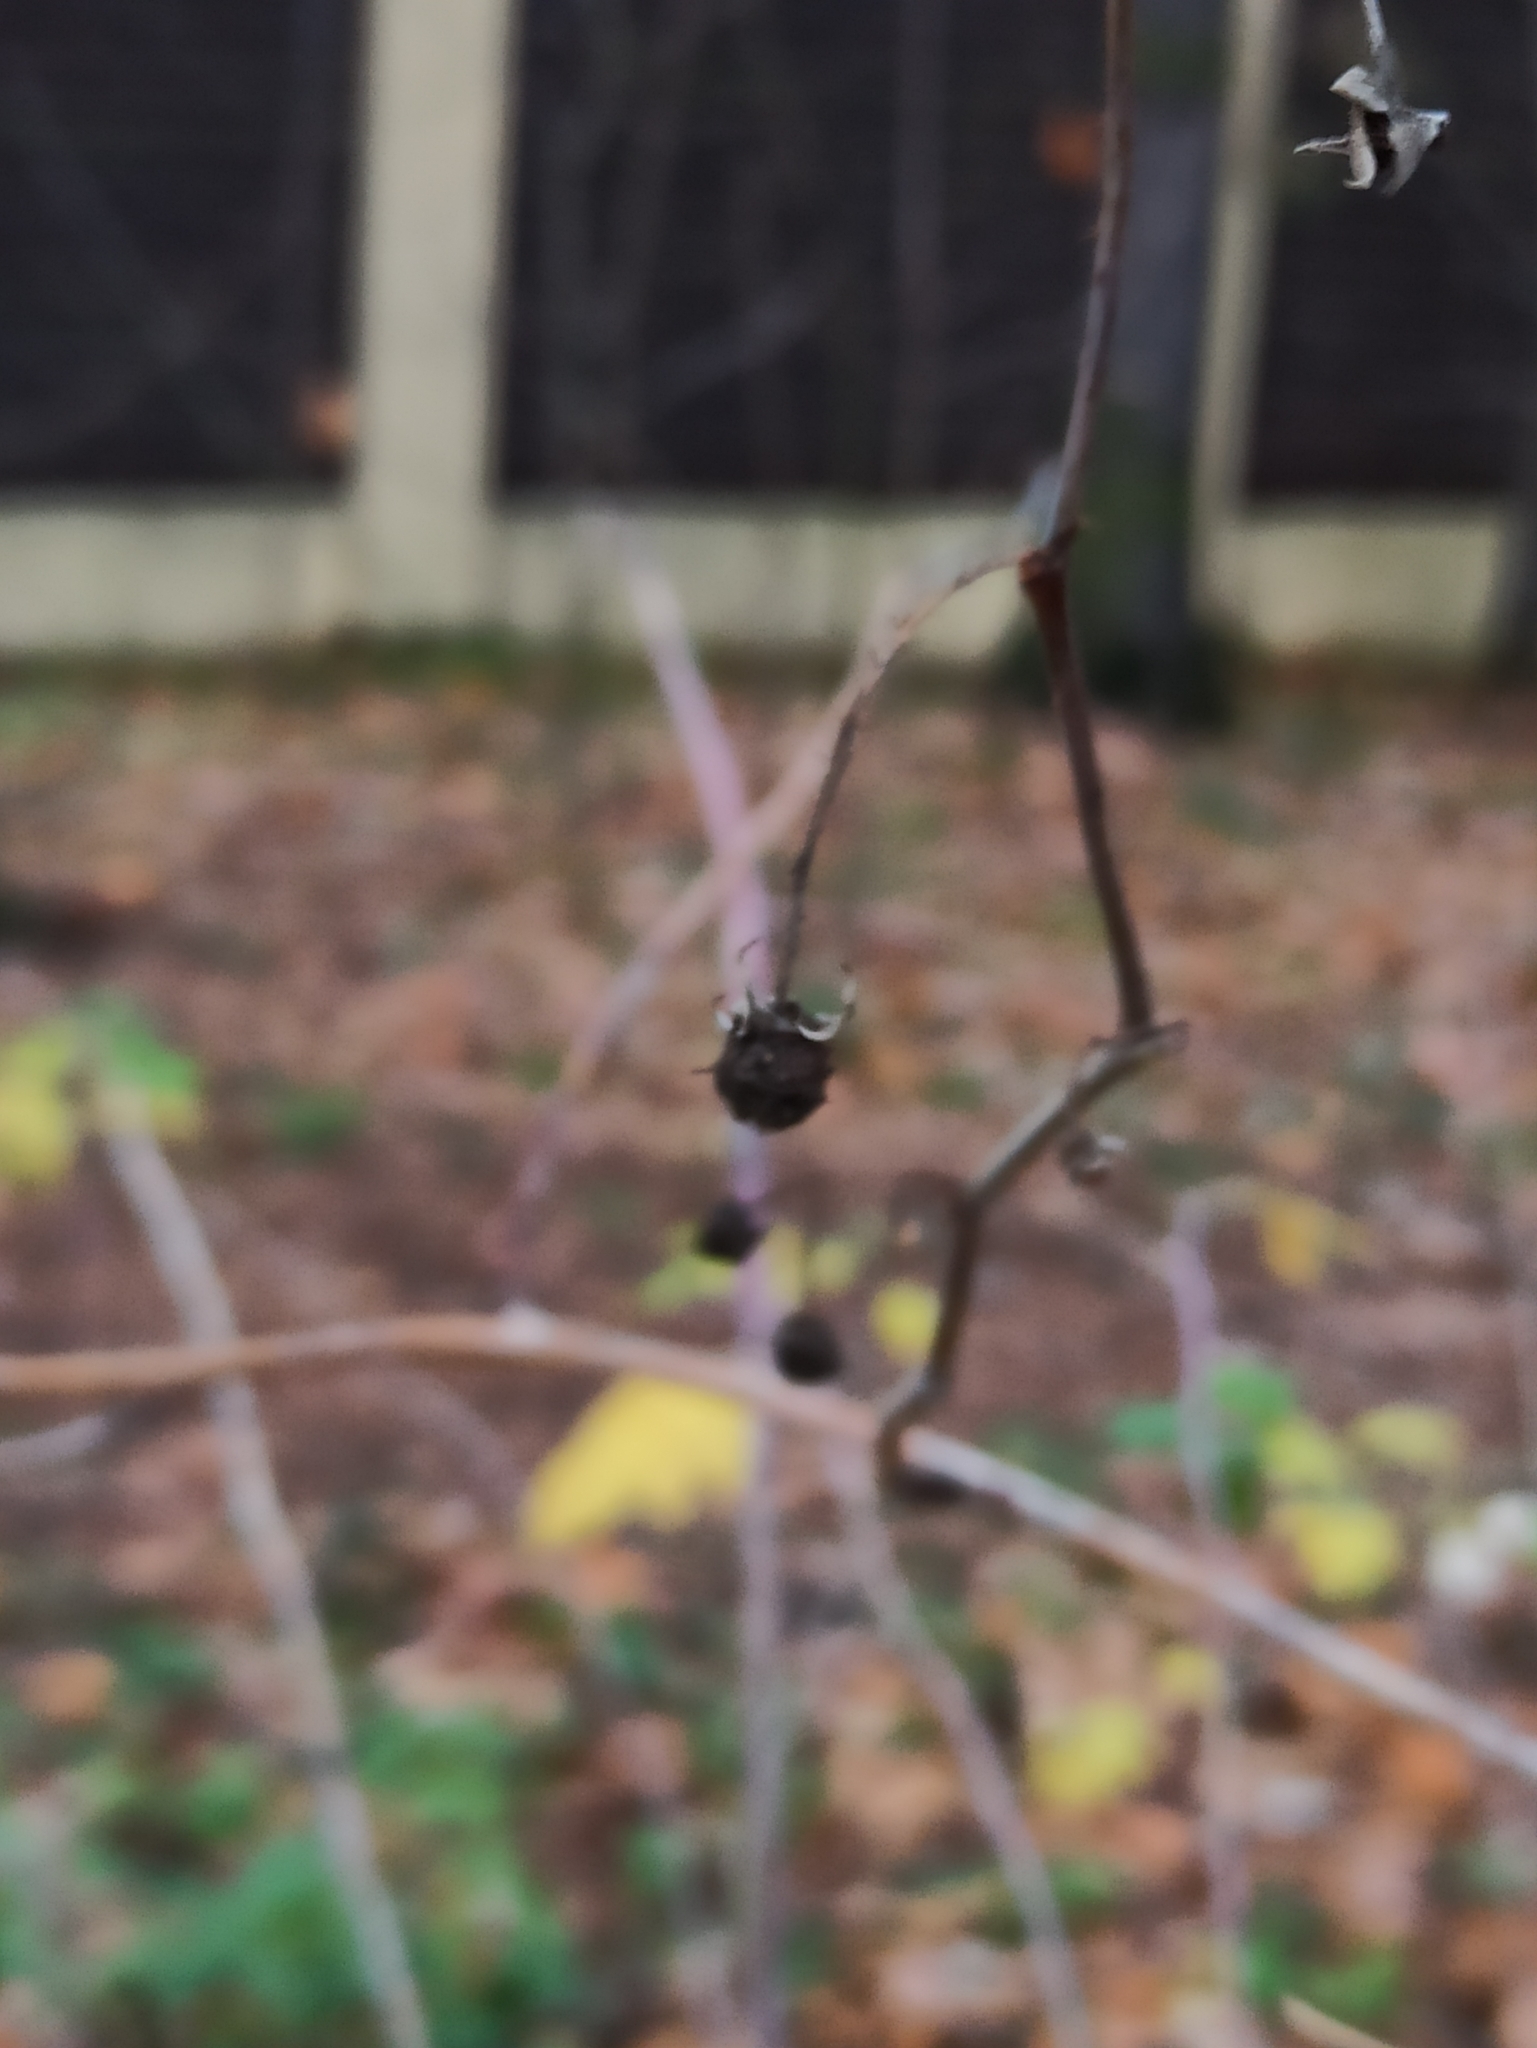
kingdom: Plantae
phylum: Tracheophyta
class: Magnoliopsida
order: Rosales
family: Rosaceae
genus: Rubus
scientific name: Rubus idaeus
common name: Raspberry
